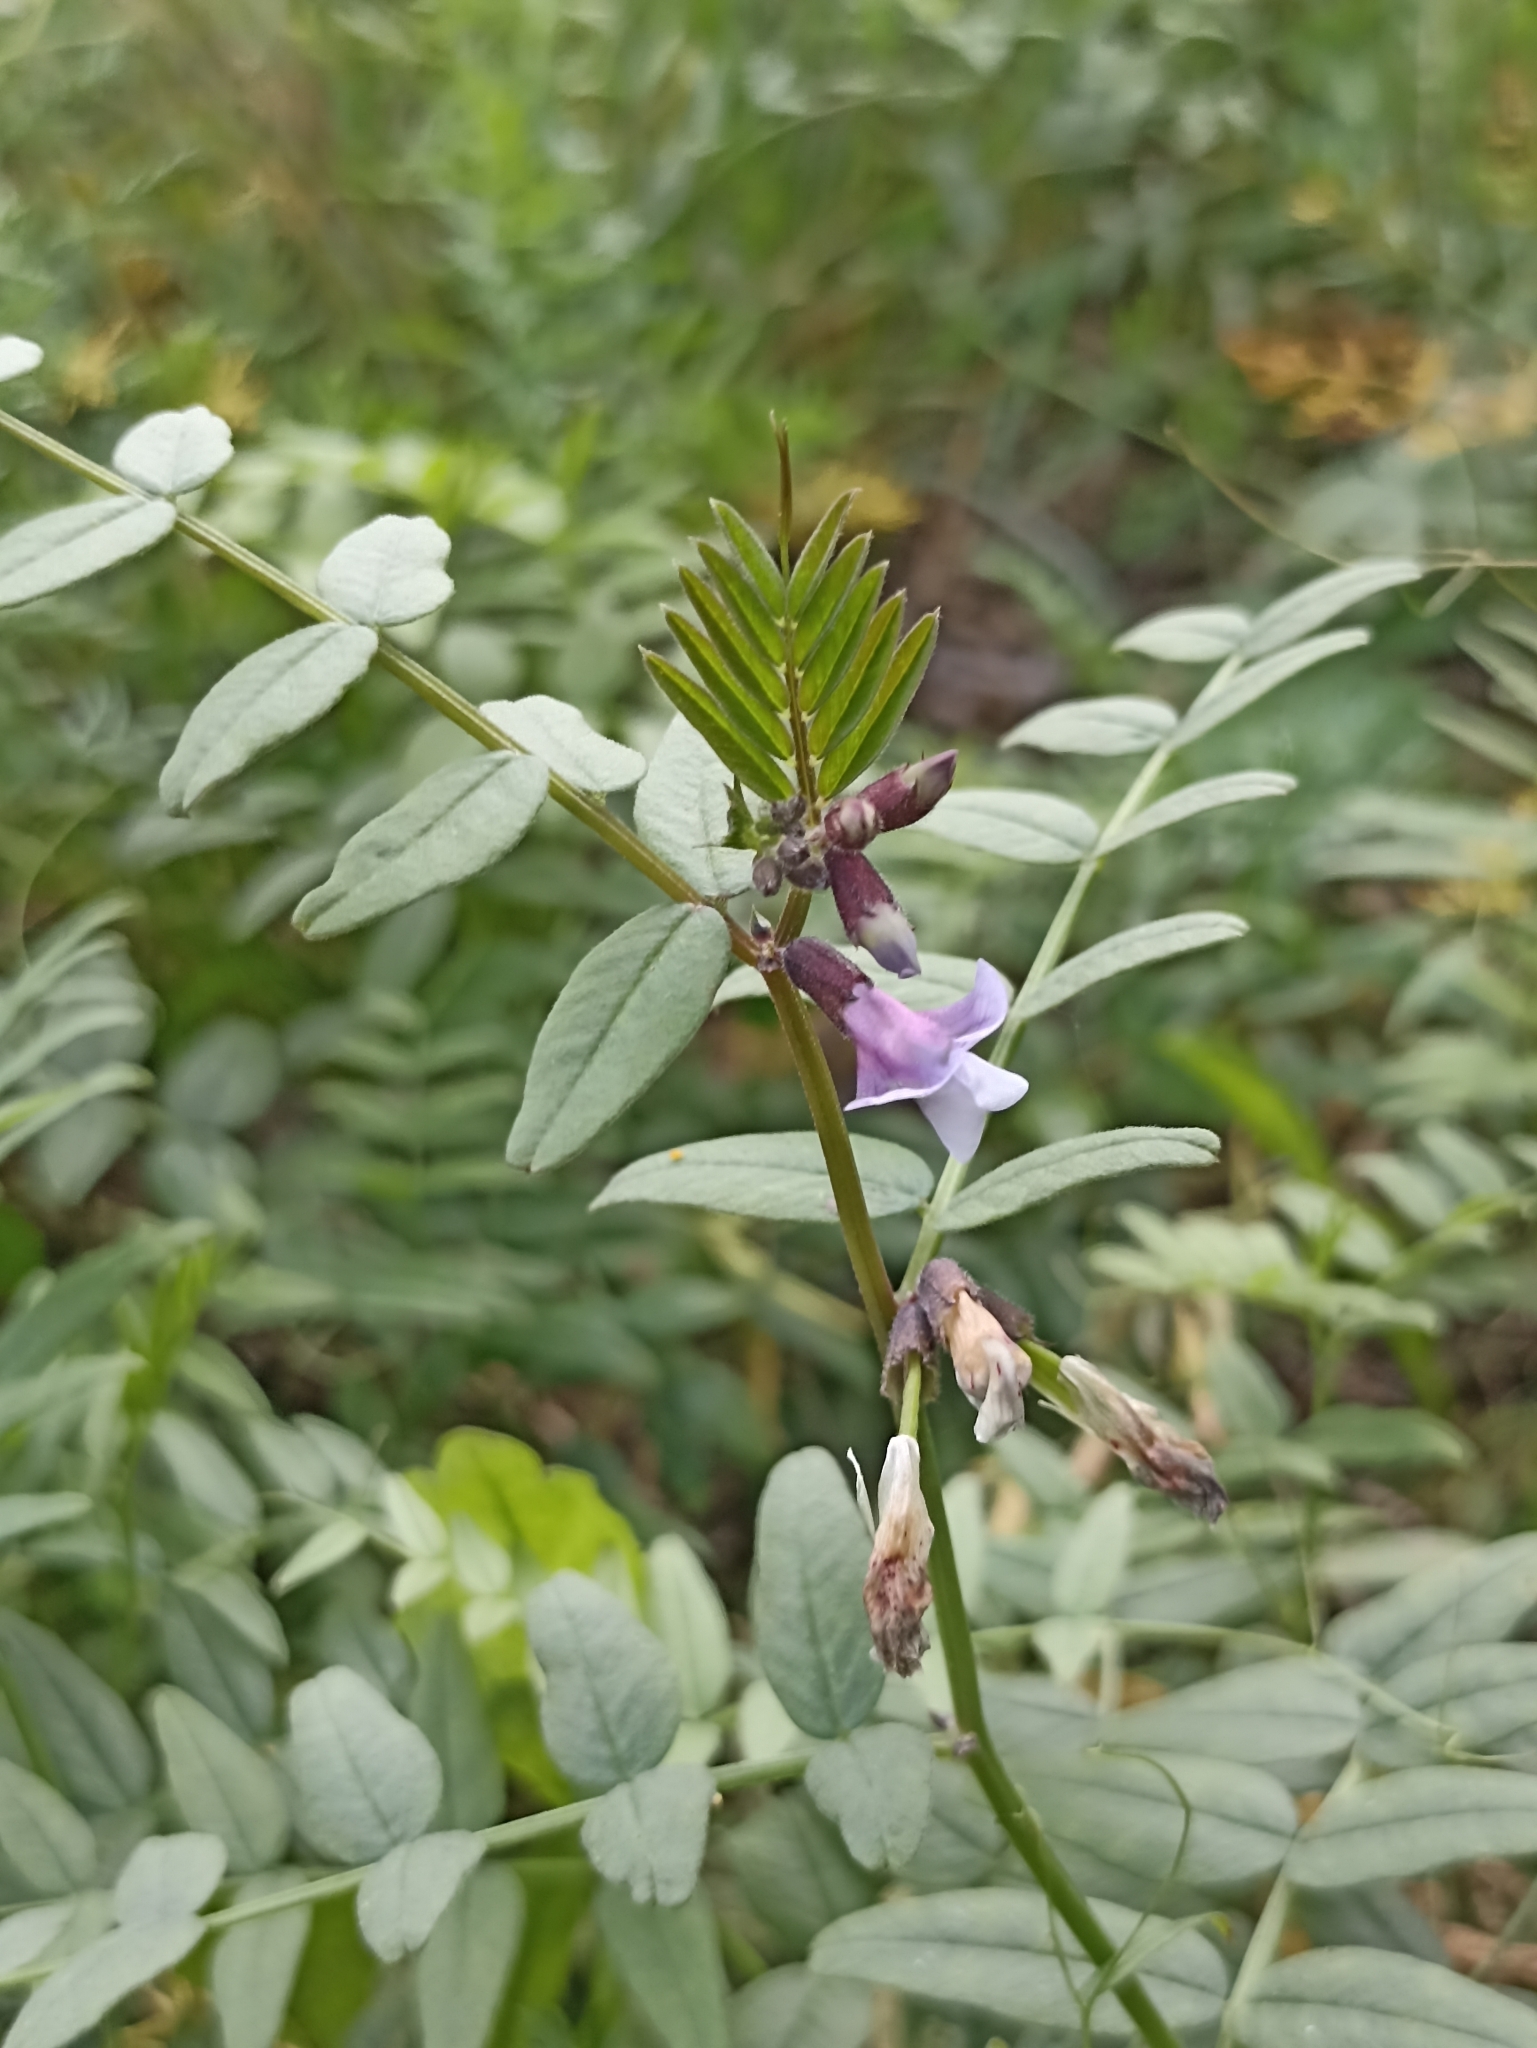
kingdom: Plantae
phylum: Tracheophyta
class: Magnoliopsida
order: Fabales
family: Fabaceae
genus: Vicia
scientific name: Vicia sepium
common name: Bush vetch
